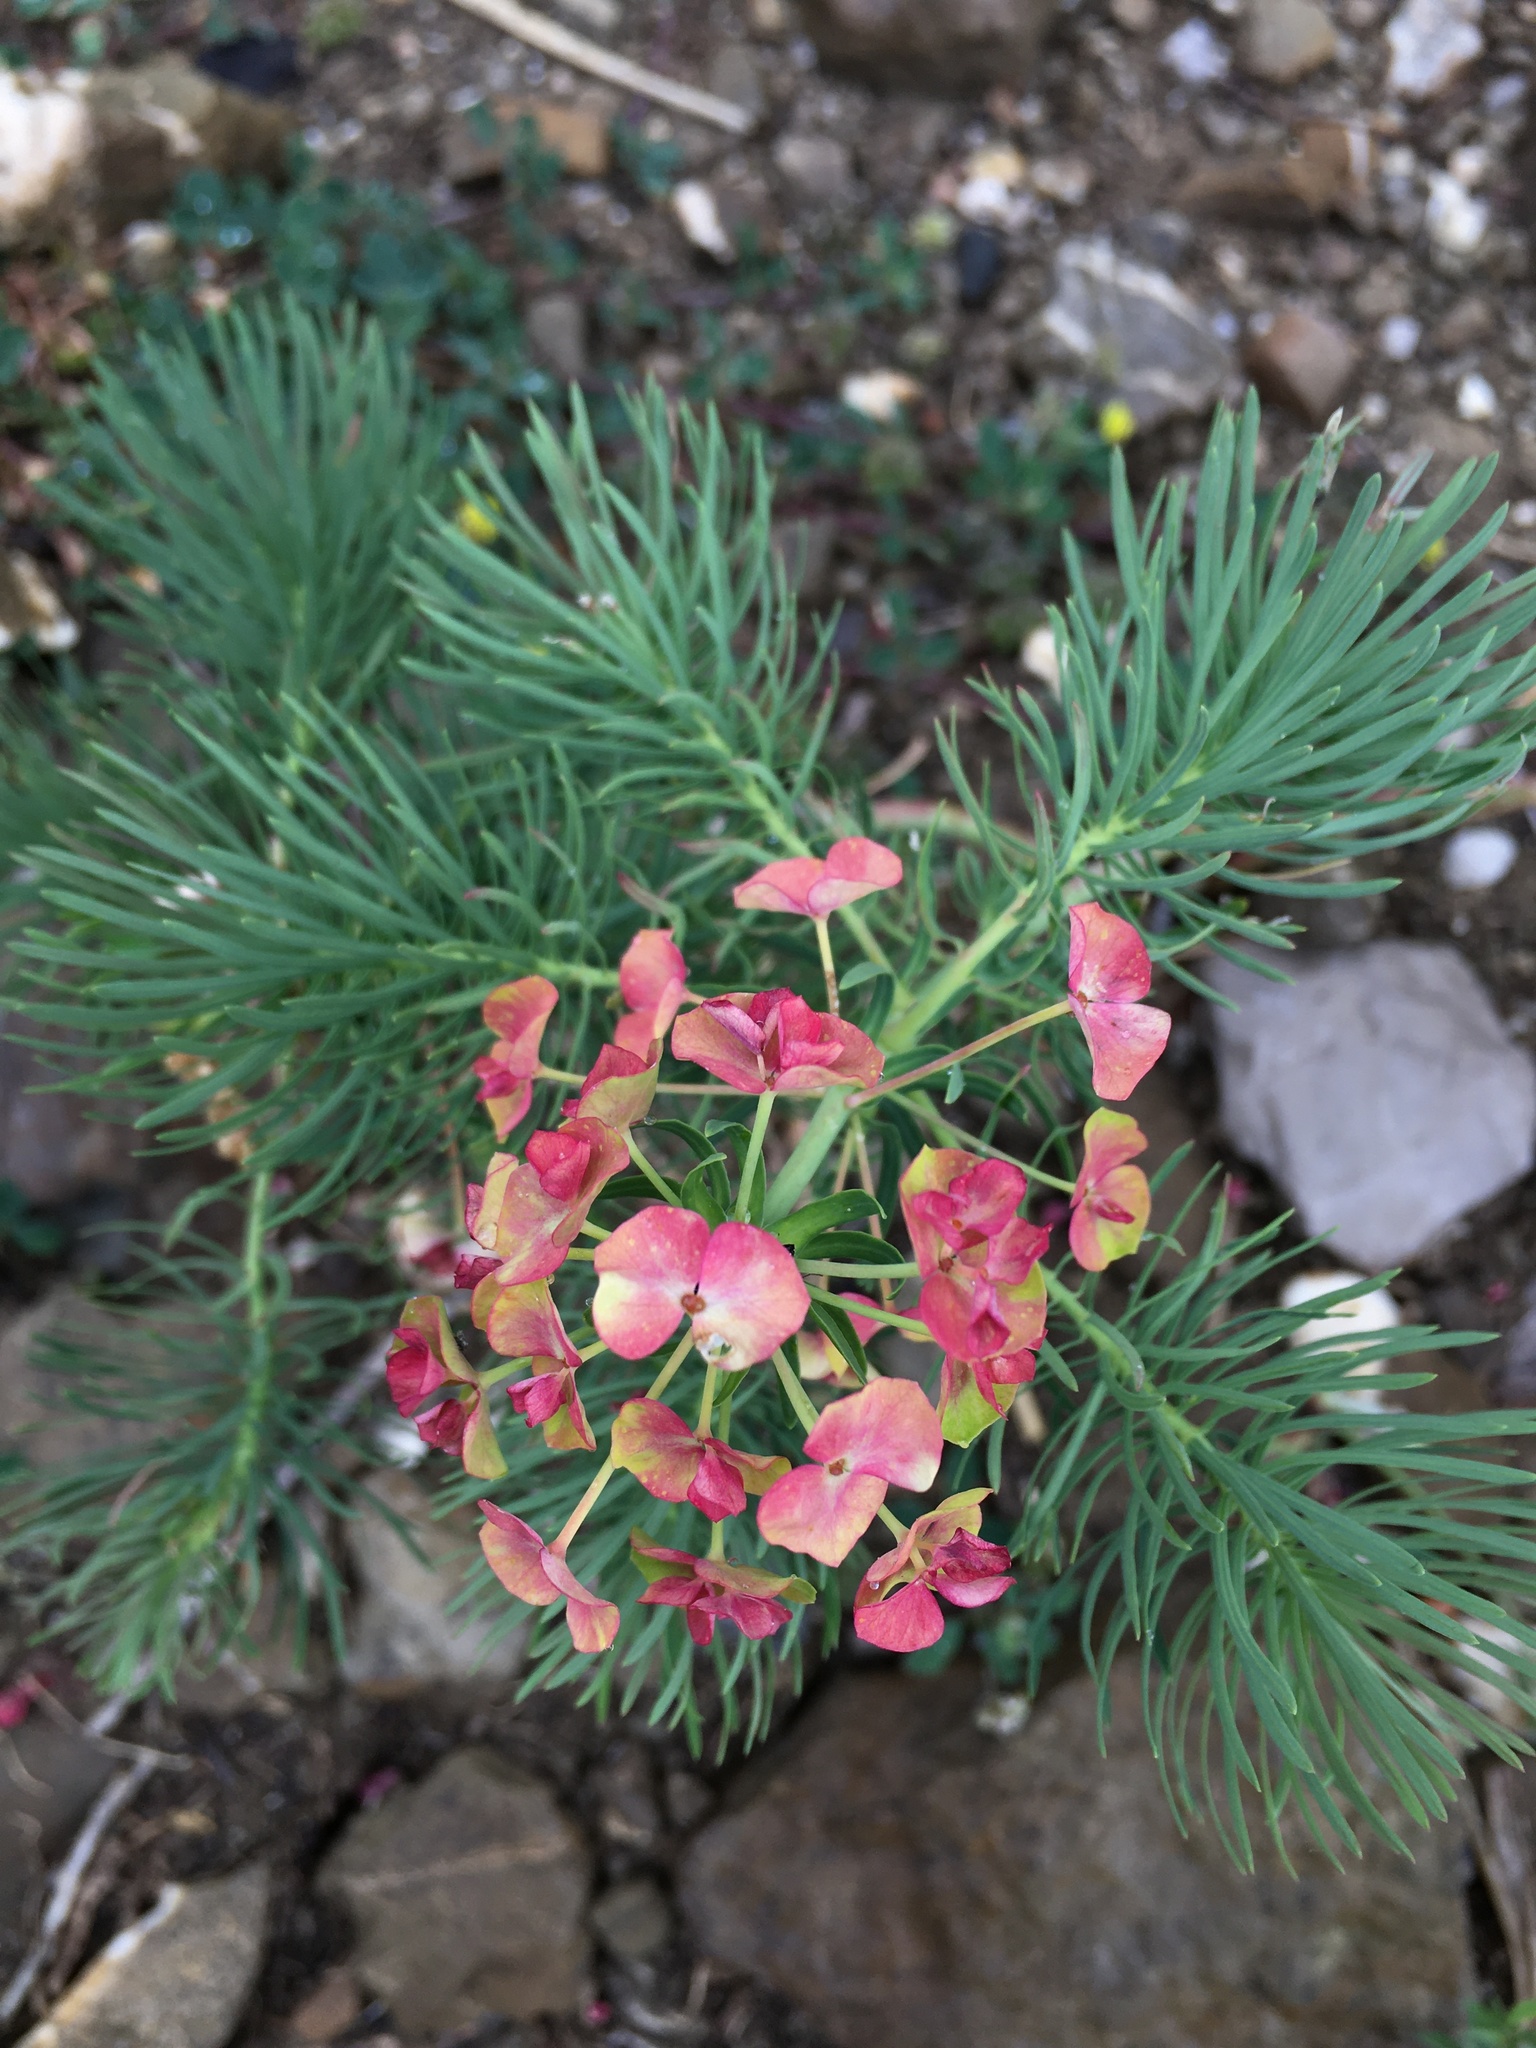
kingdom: Plantae
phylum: Tracheophyta
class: Magnoliopsida
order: Malpighiales
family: Euphorbiaceae
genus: Euphorbia
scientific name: Euphorbia cyparissias
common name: Cypress spurge
